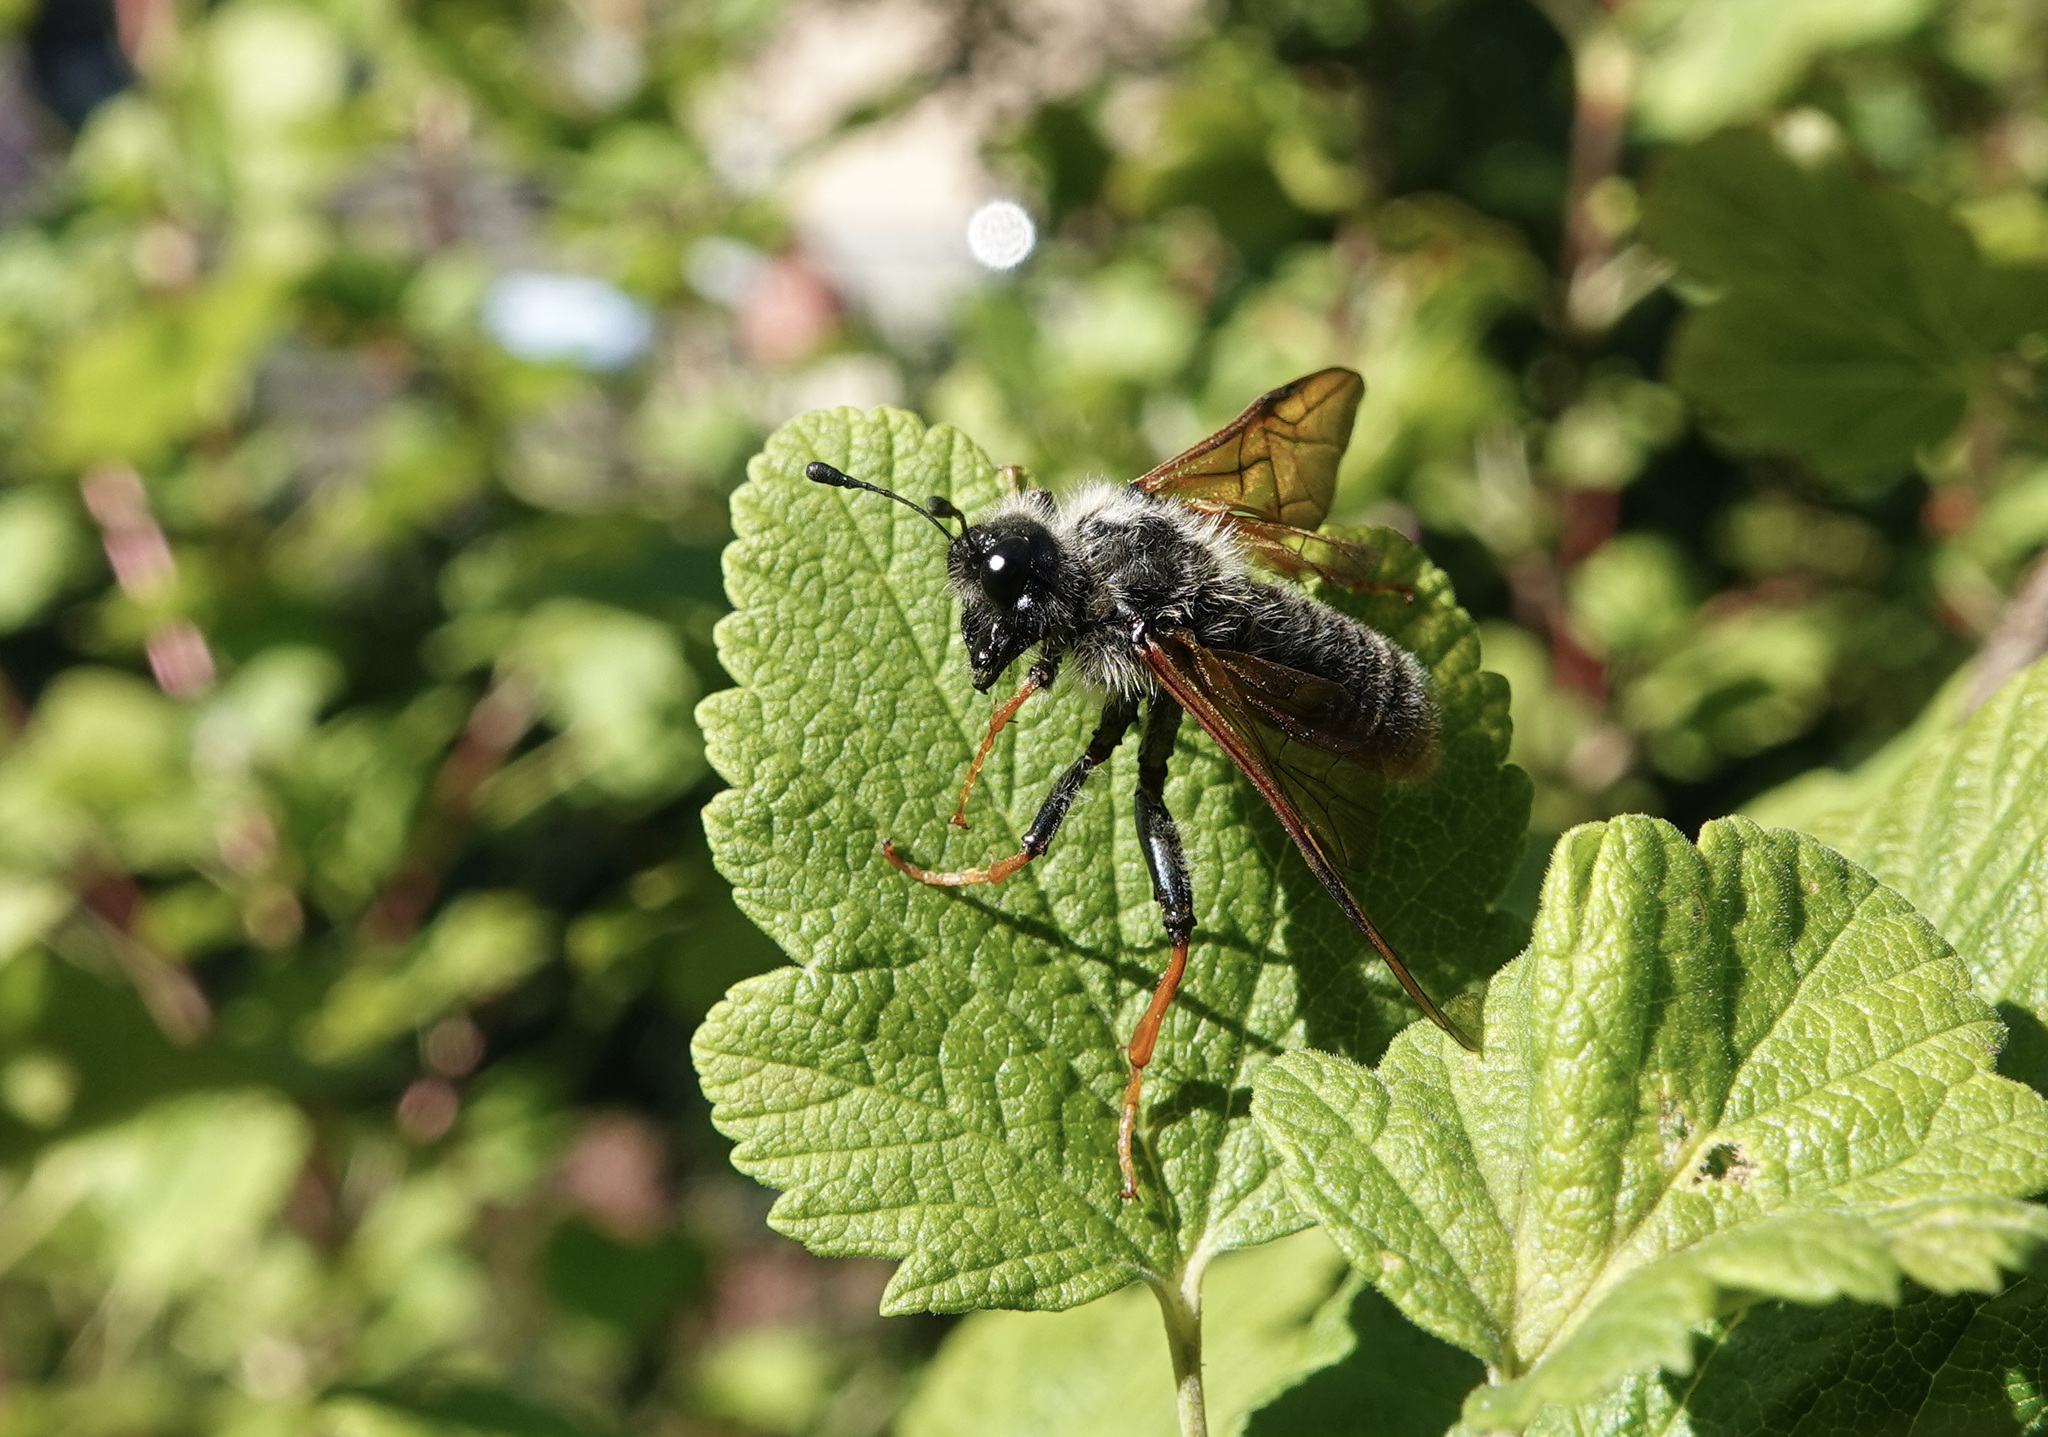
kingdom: Animalia
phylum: Arthropoda
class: Insecta
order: Hymenoptera
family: Cimbicidae
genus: Trichiosoma
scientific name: Trichiosoma triangulum
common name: Giant birch sawfly
